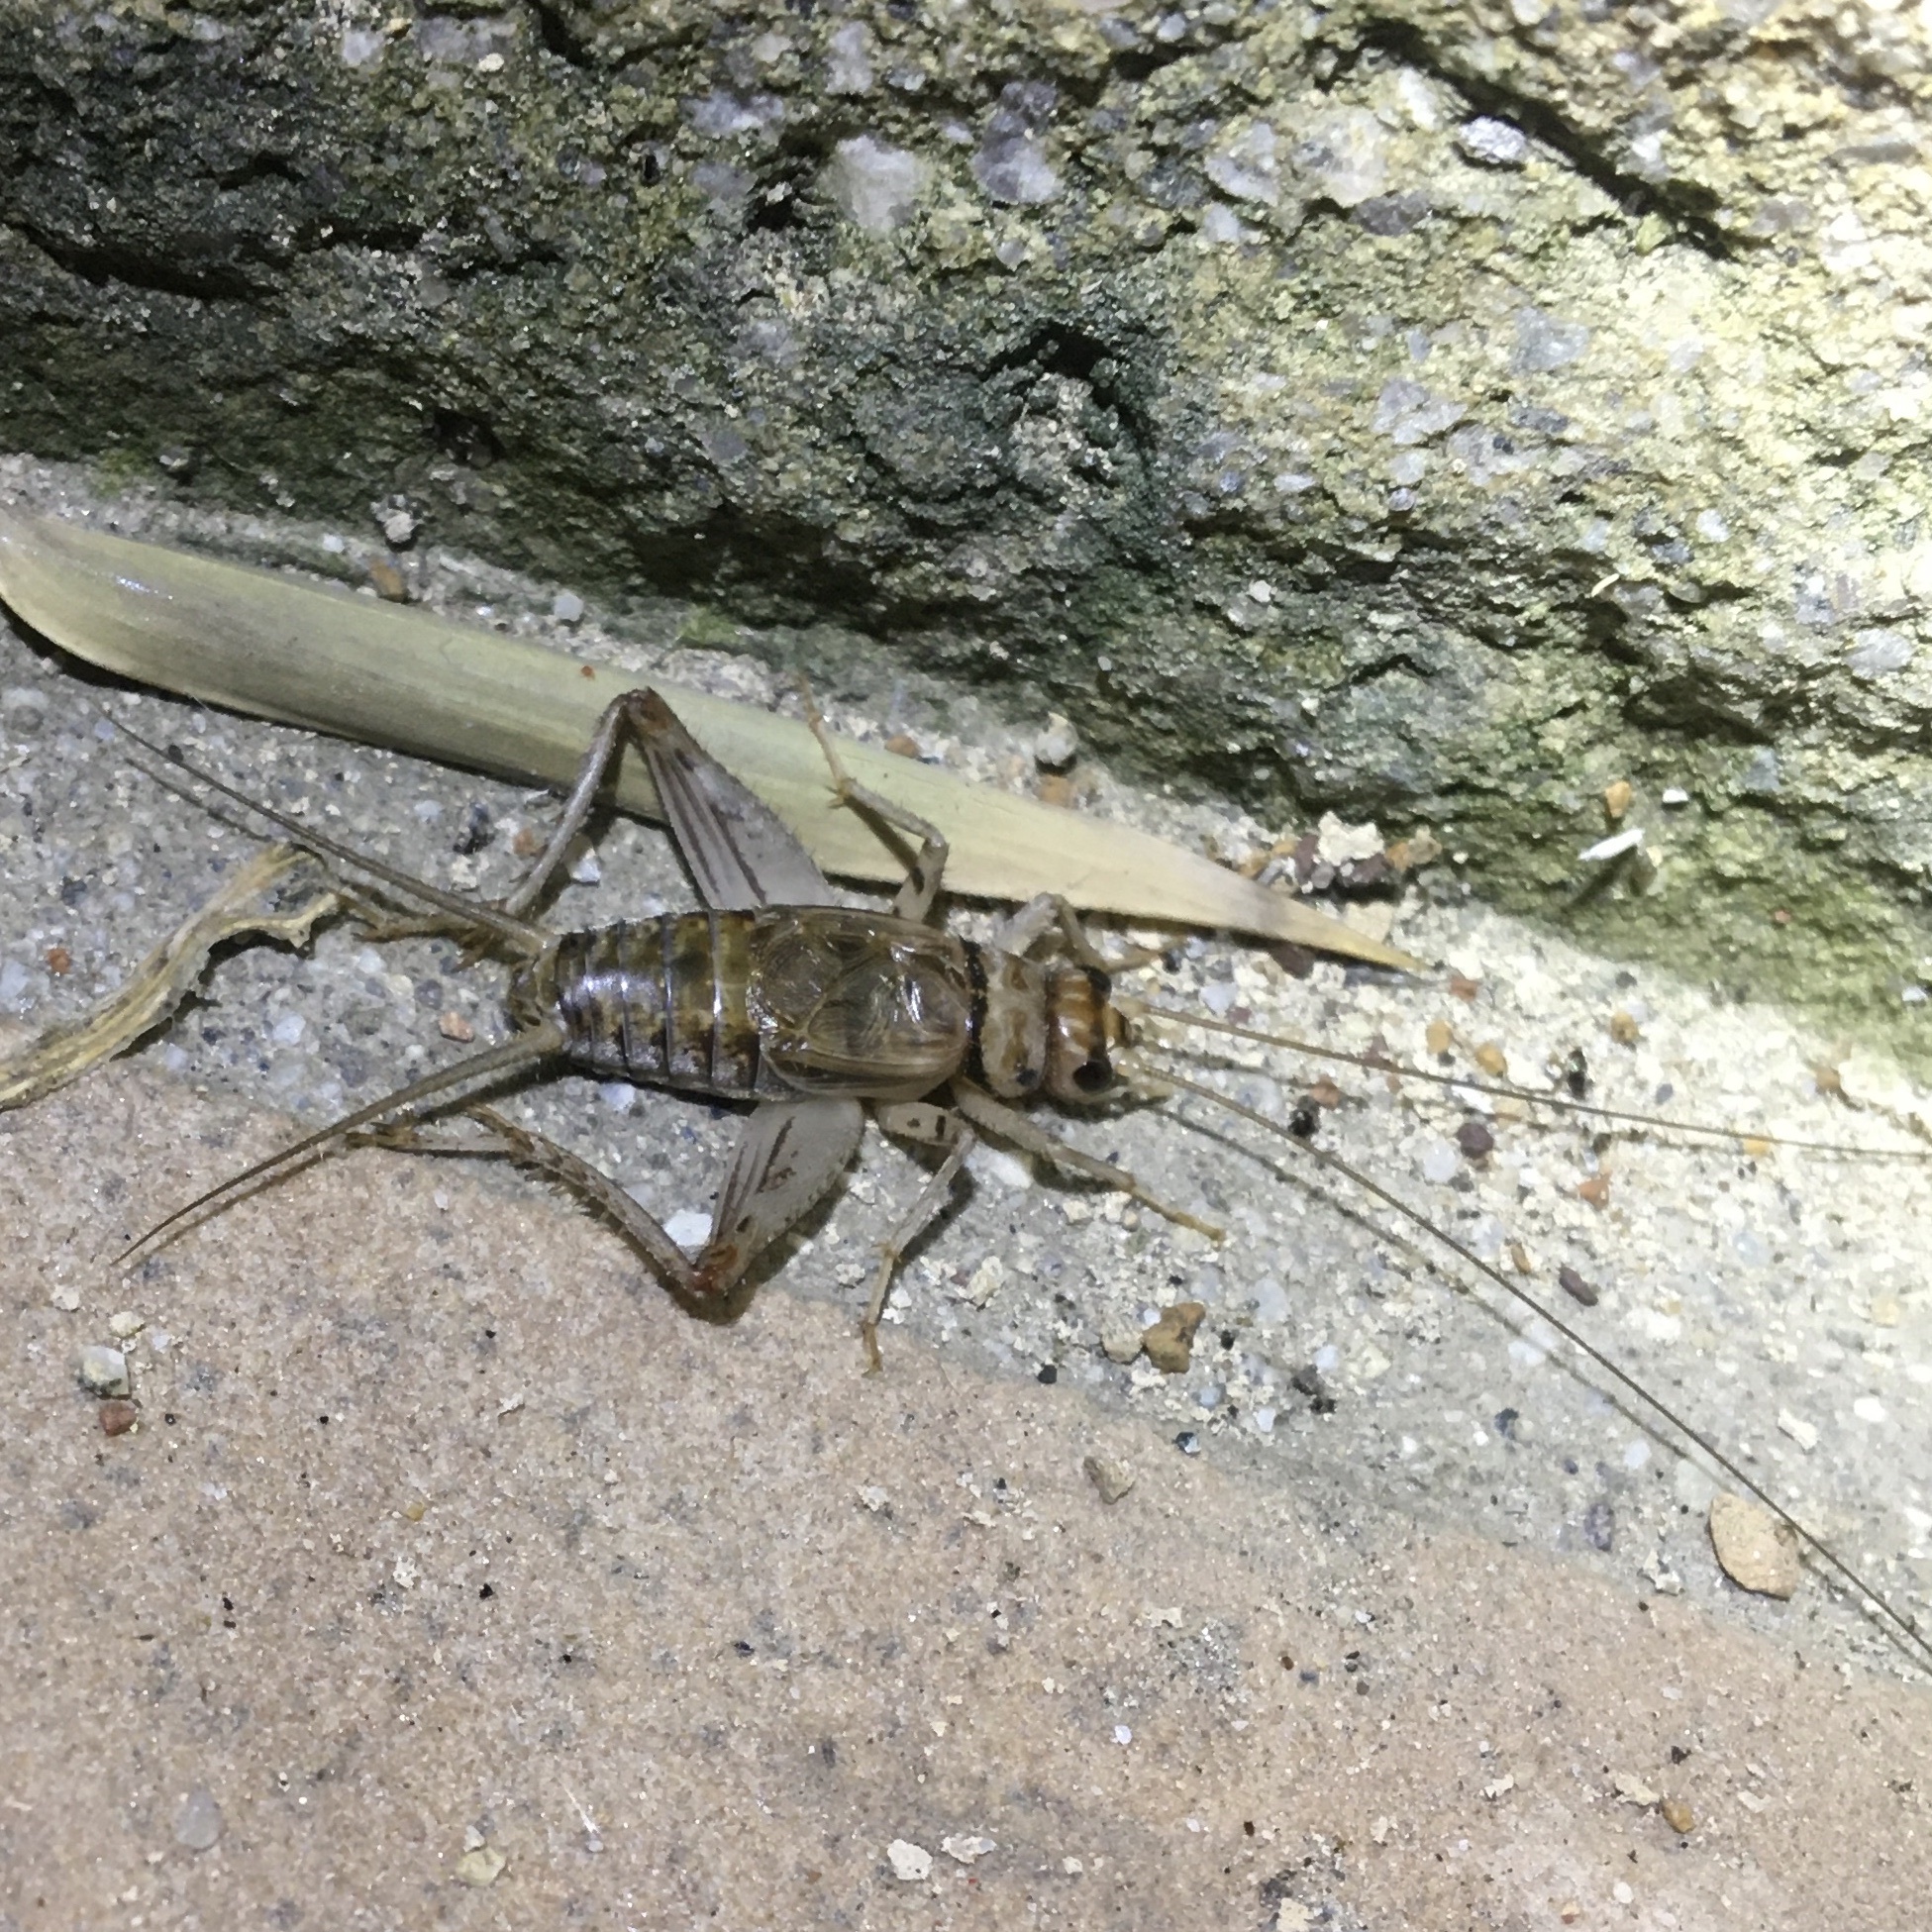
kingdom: Animalia
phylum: Arthropoda
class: Insecta
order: Orthoptera
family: Gryllidae
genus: Gryllodes
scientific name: Gryllodes sigillatus
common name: Tropical house cricket
